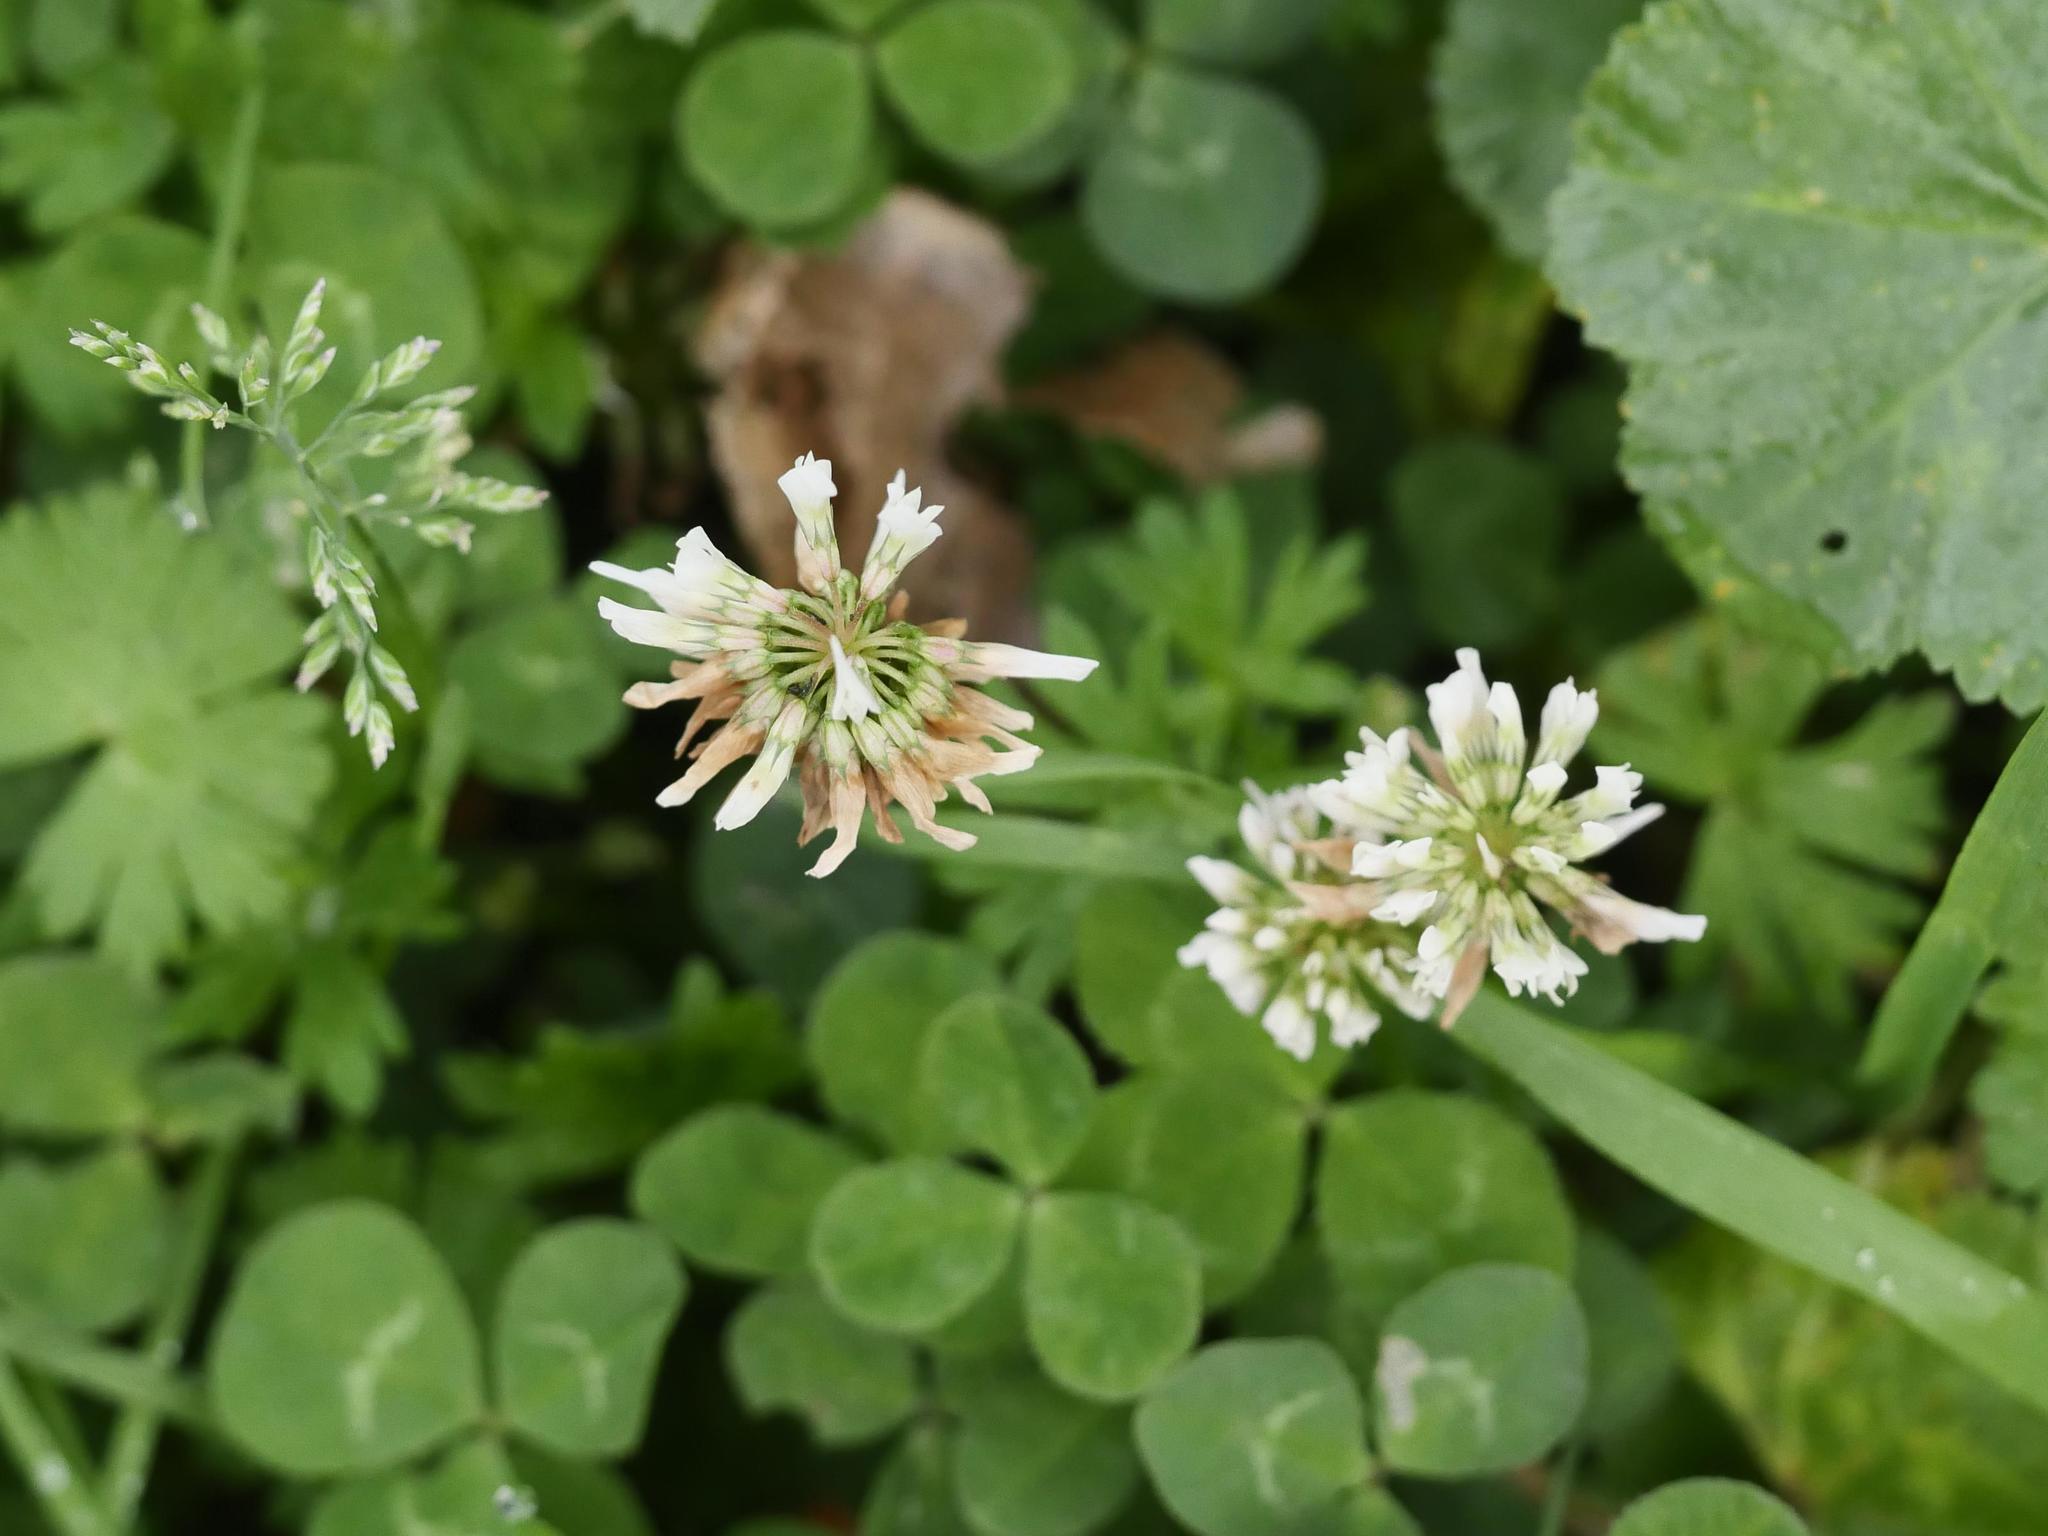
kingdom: Plantae
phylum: Tracheophyta
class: Magnoliopsida
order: Fabales
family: Fabaceae
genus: Trifolium
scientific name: Trifolium repens
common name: White clover
